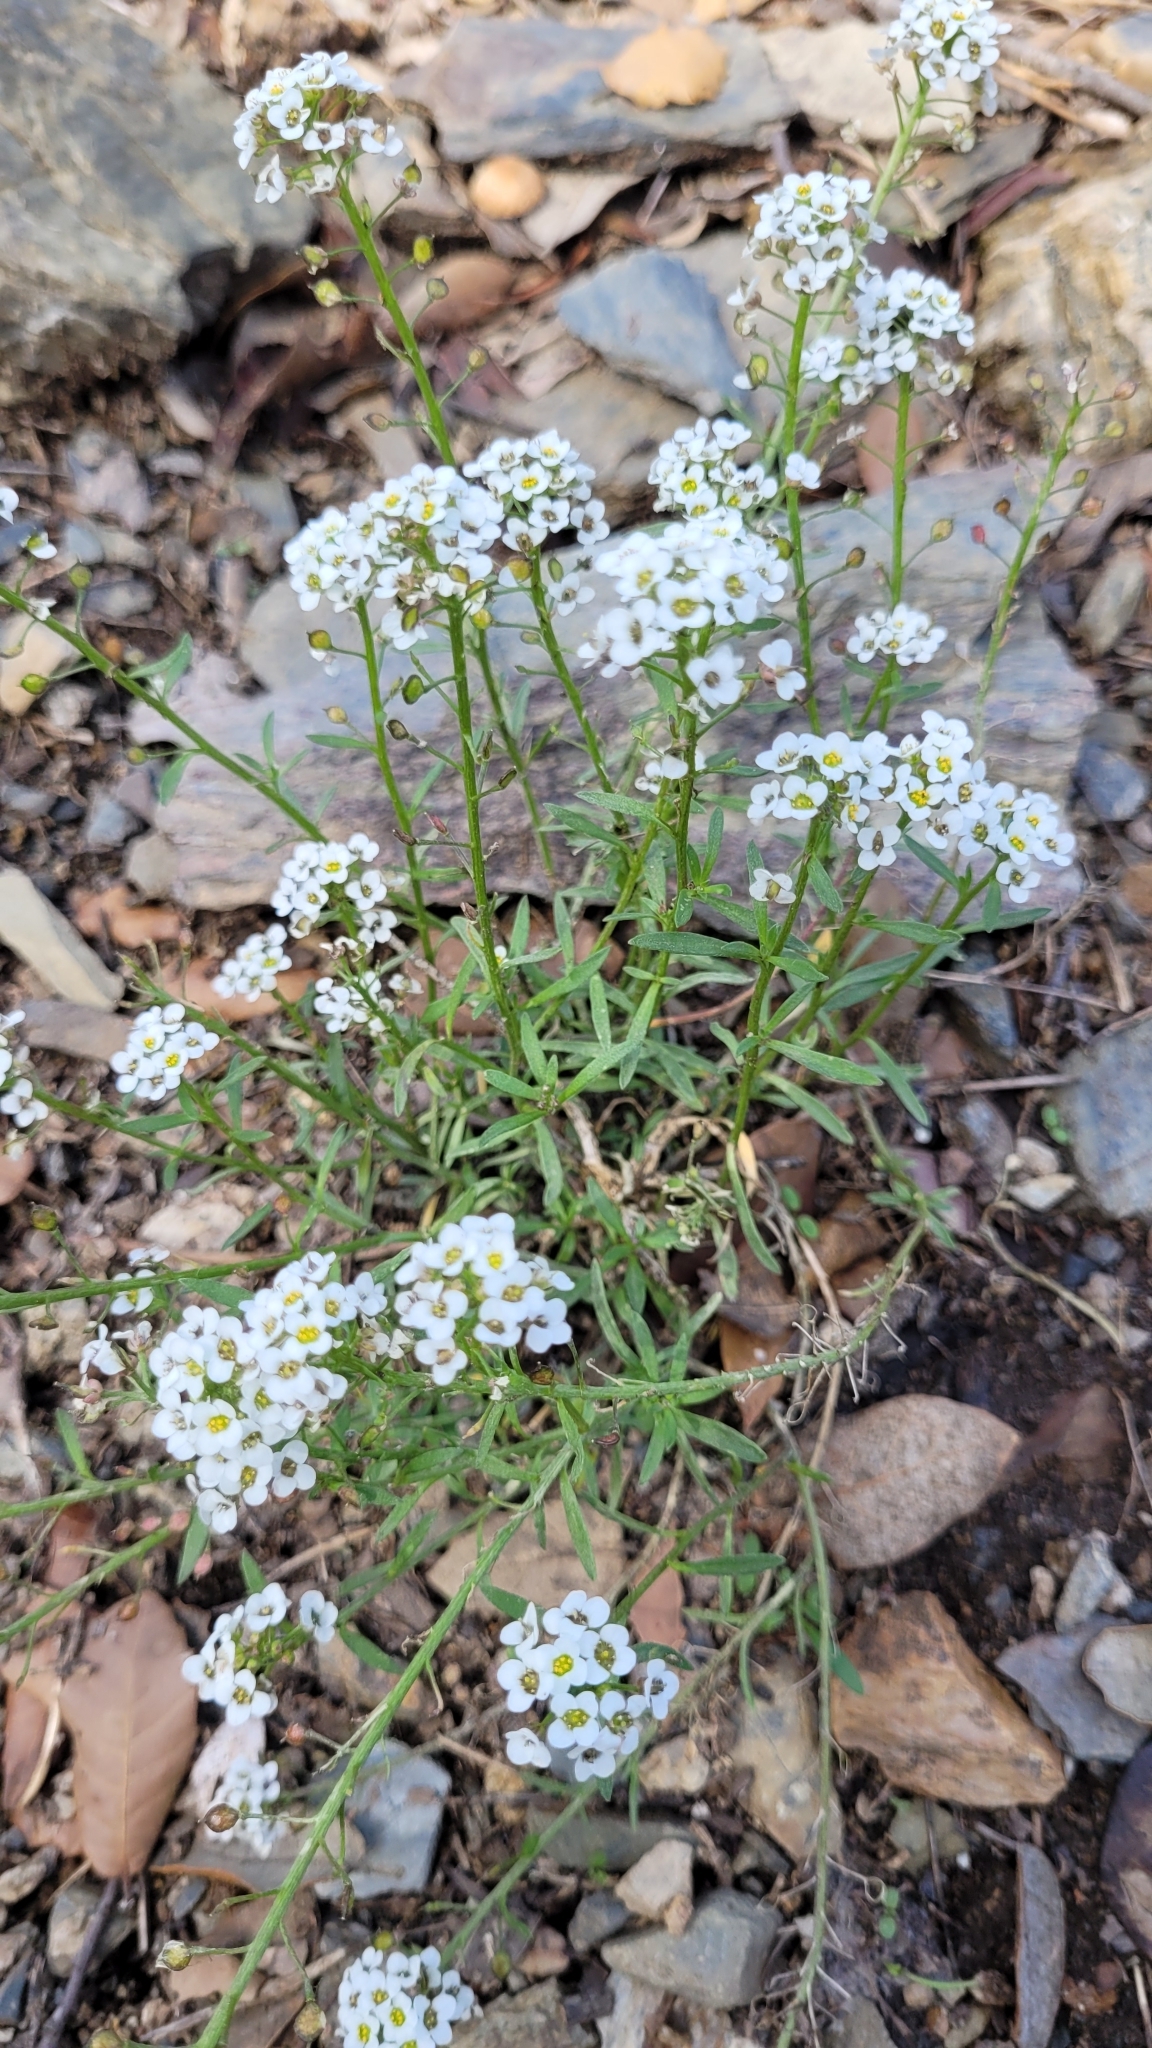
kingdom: Plantae
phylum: Tracheophyta
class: Magnoliopsida
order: Brassicales
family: Brassicaceae
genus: Lobularia
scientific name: Lobularia maritima
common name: Sweet alison
